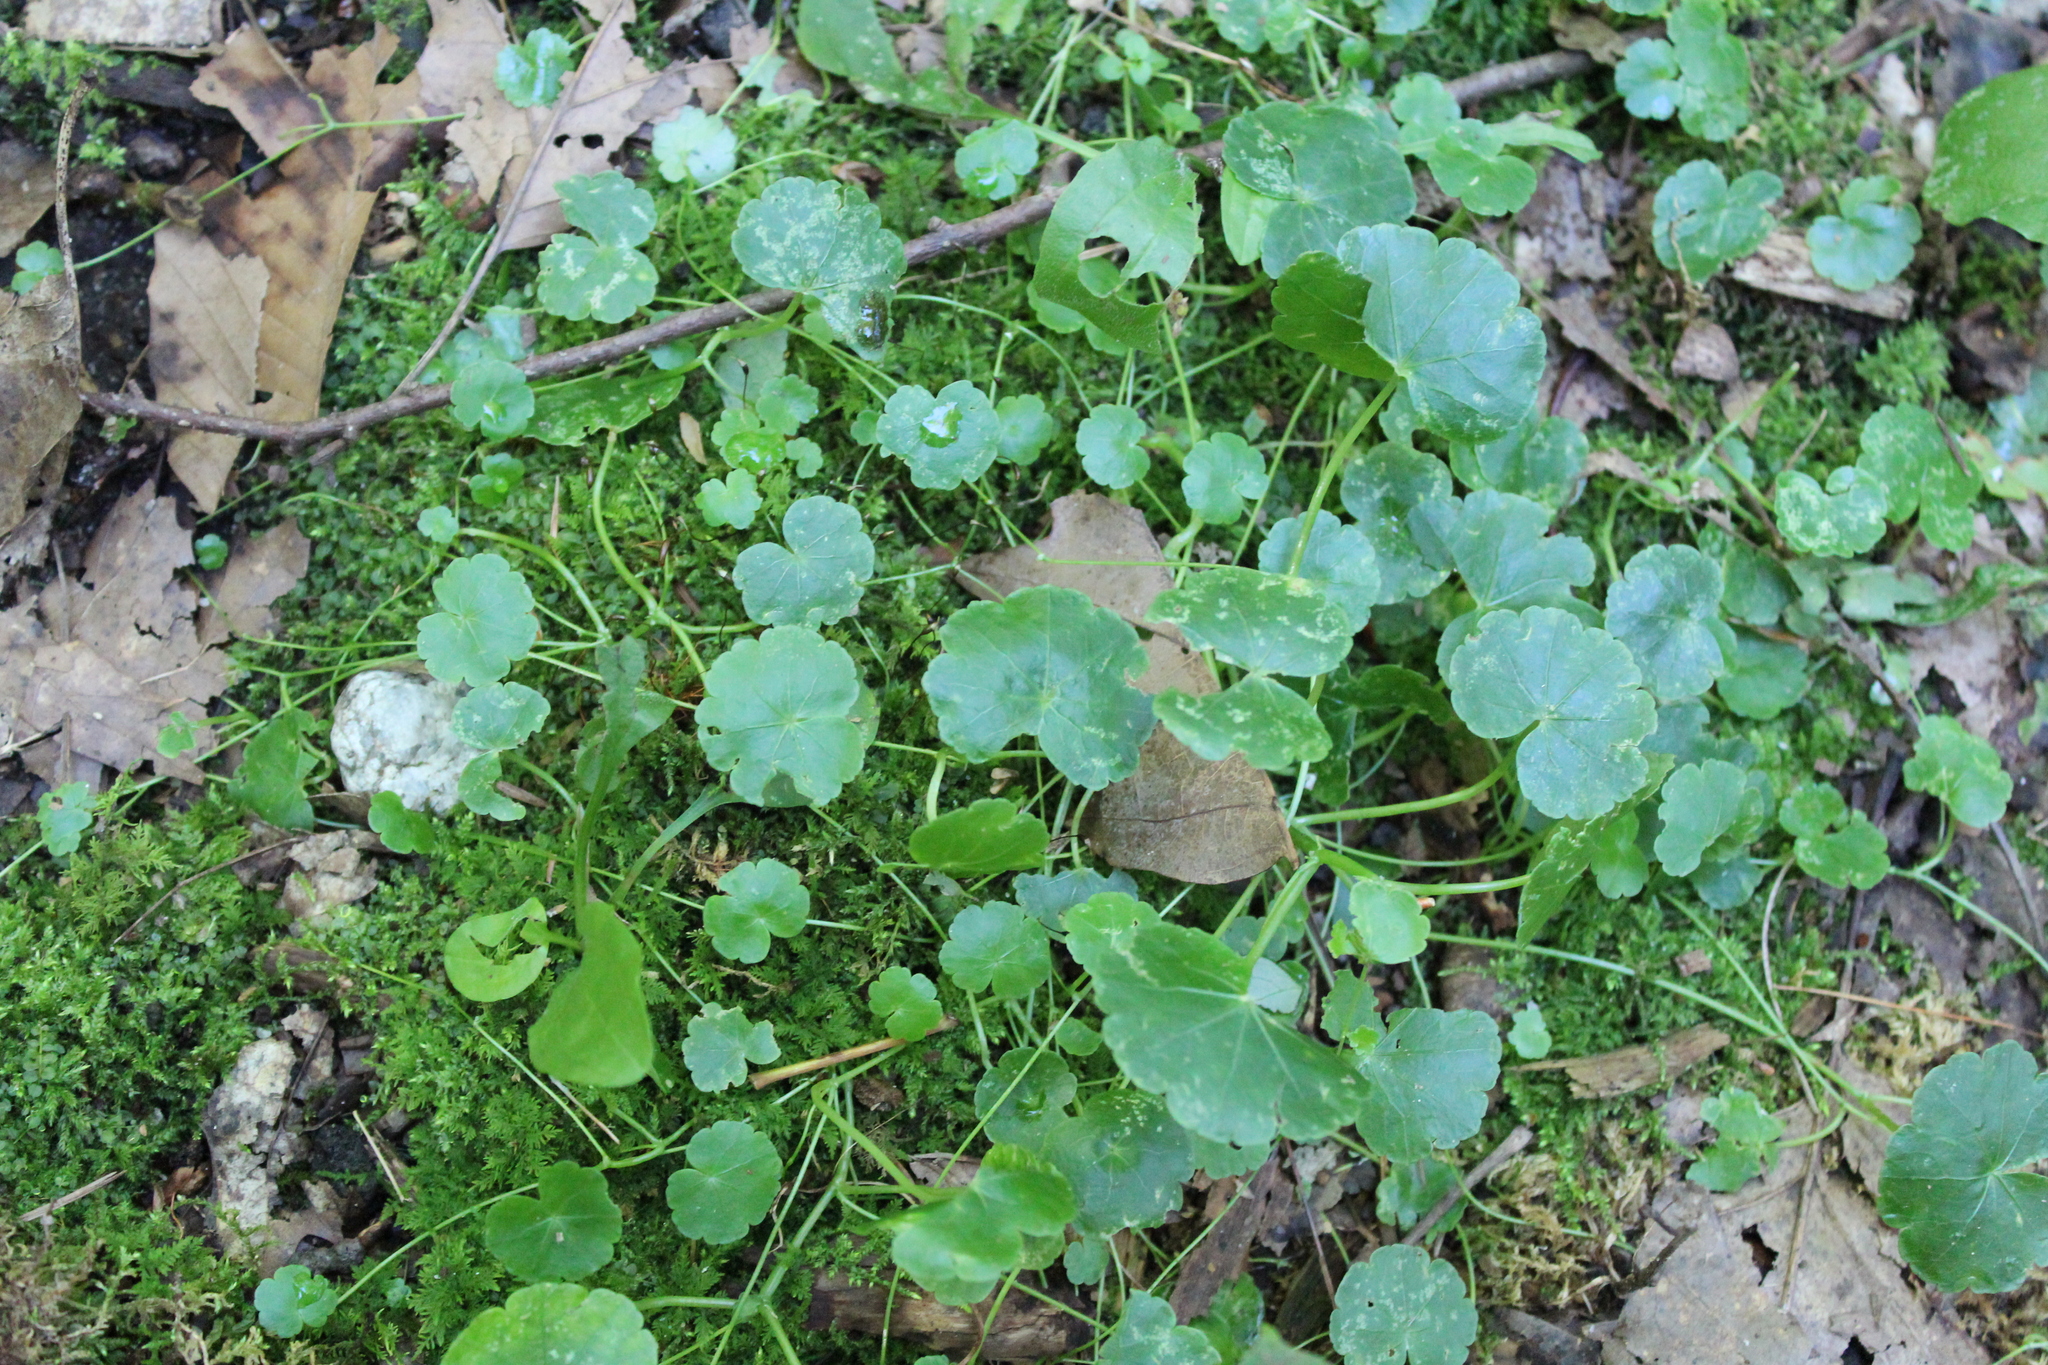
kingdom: Plantae
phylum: Tracheophyta
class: Magnoliopsida
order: Apiales
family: Araliaceae
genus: Hydrocotyle
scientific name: Hydrocotyle americana
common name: American water-pennywort
